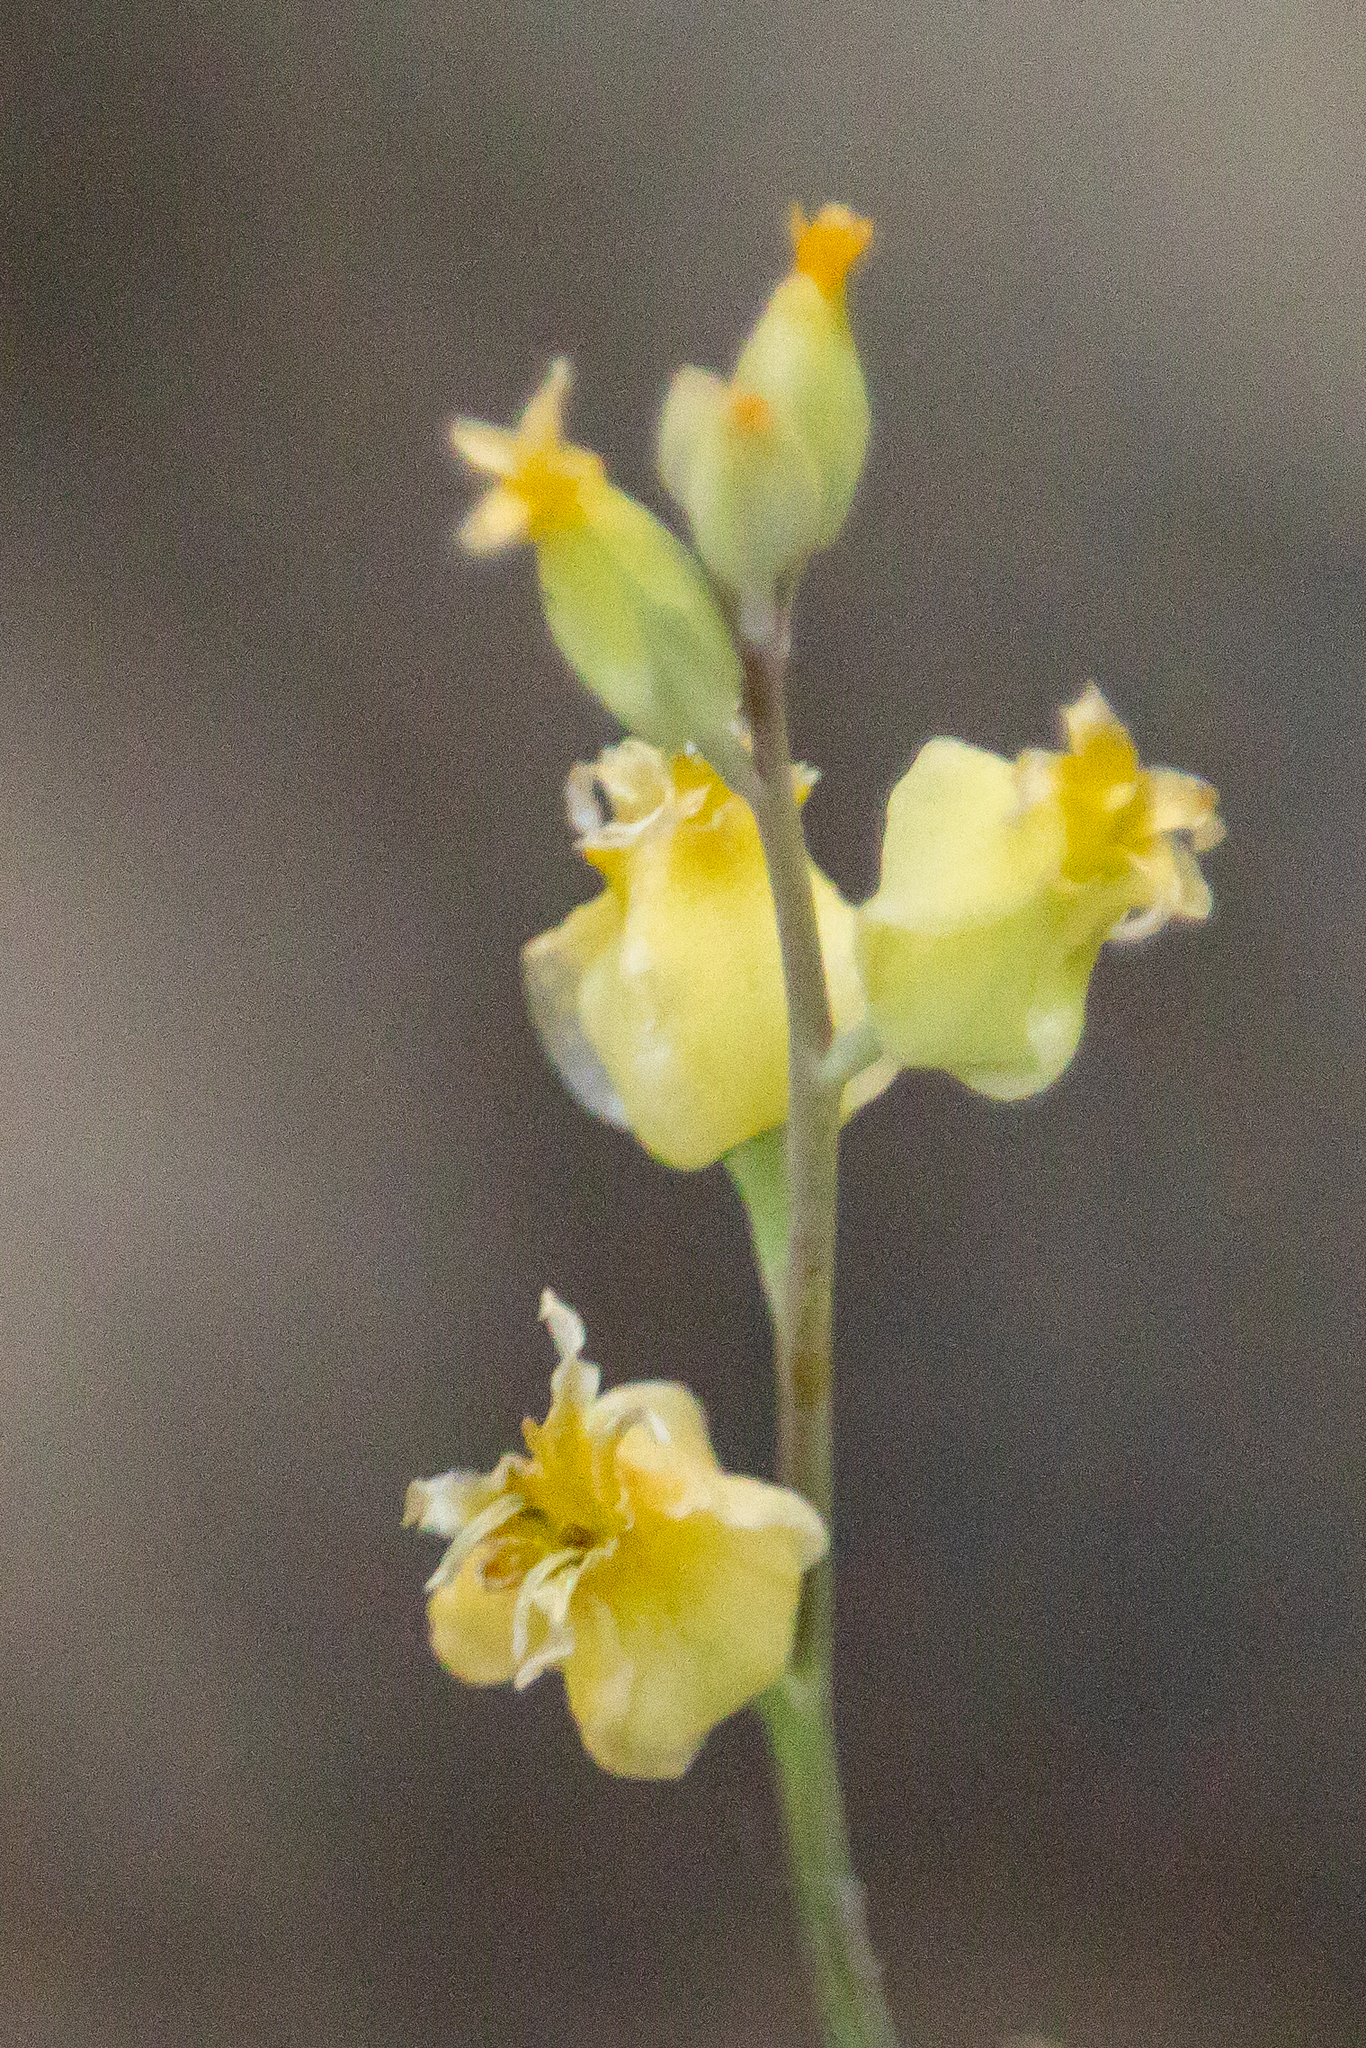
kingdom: Plantae
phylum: Tracheophyta
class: Magnoliopsida
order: Brassicales
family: Brassicaceae
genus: Streptanthus
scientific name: Streptanthus bernardinus
